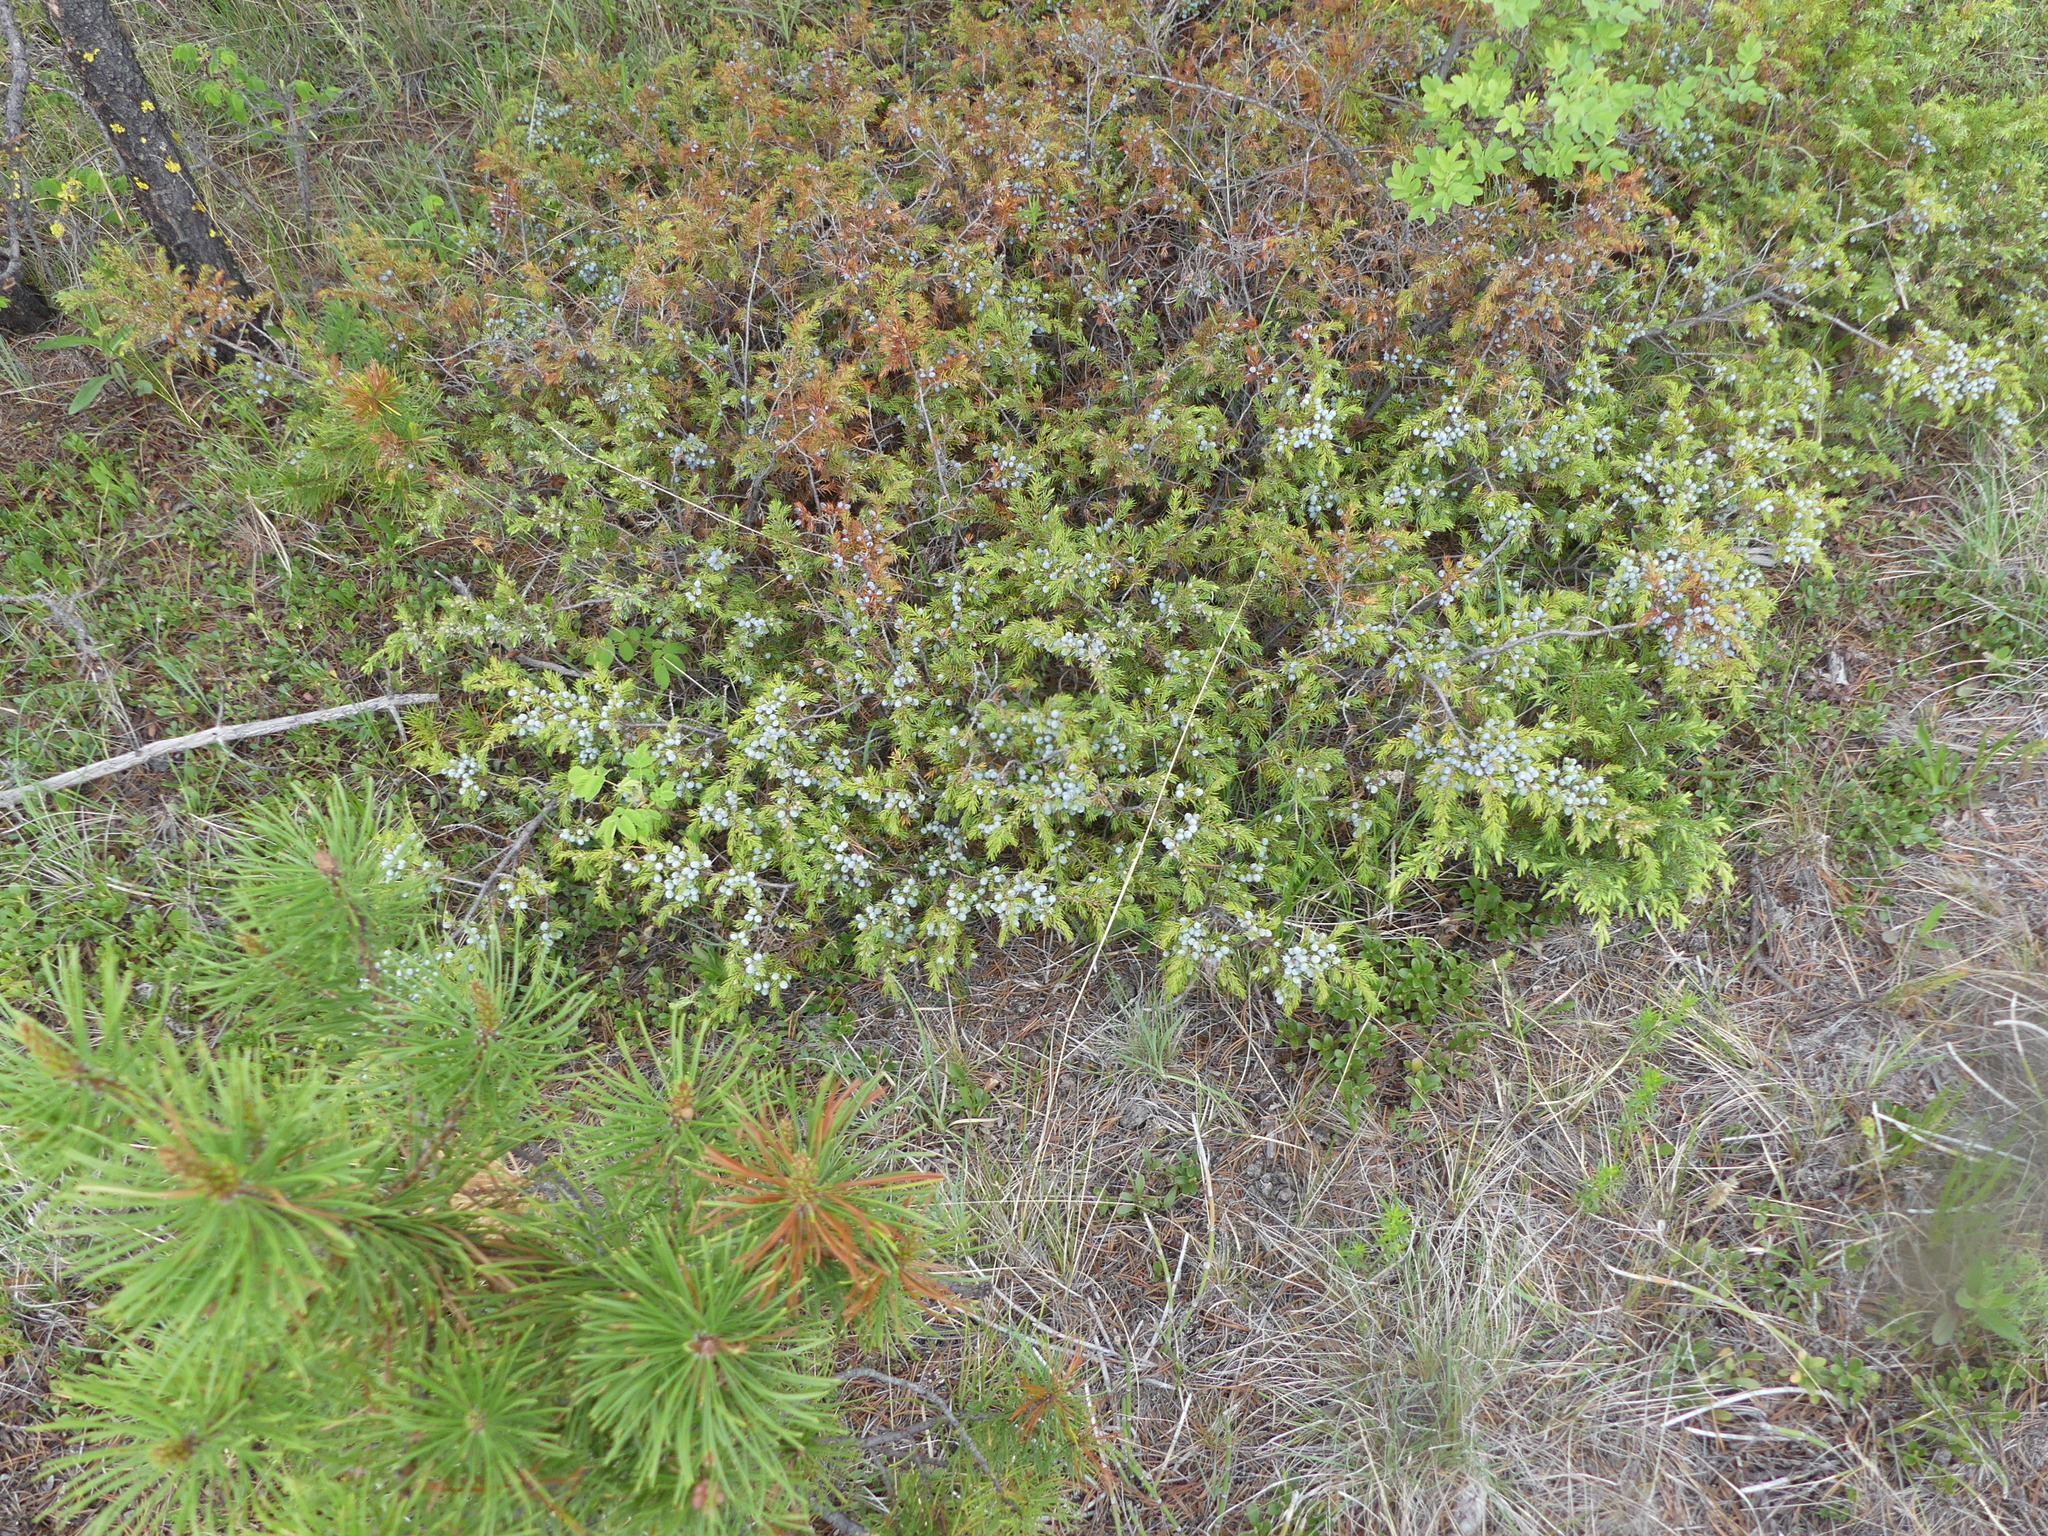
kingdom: Plantae
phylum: Tracheophyta
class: Pinopsida
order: Pinales
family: Cupressaceae
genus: Juniperus
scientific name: Juniperus communis
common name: Common juniper
